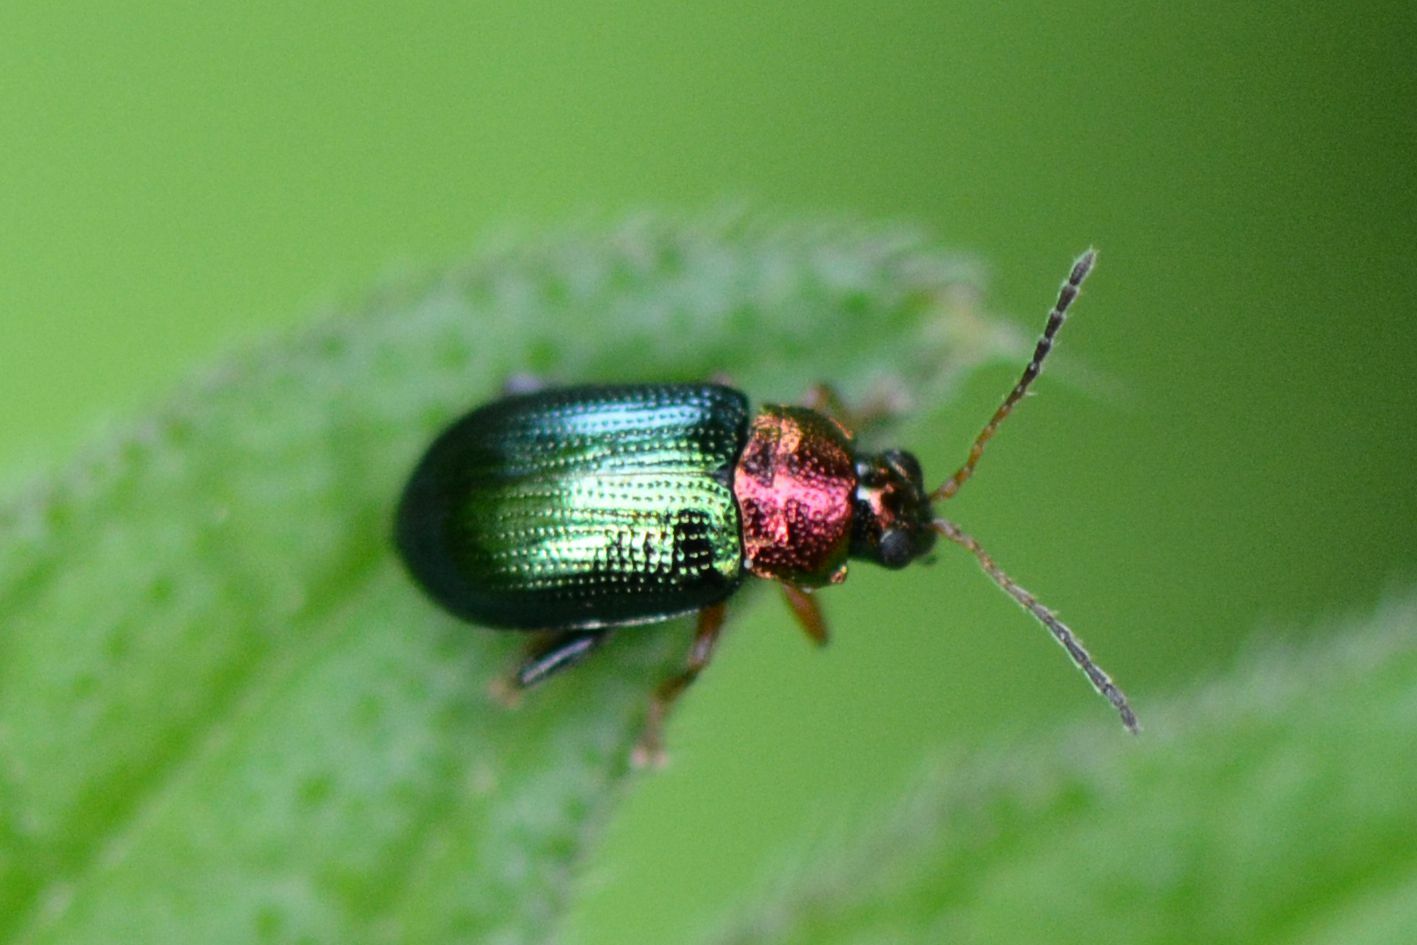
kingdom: Animalia
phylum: Arthropoda
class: Insecta
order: Coleoptera
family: Chrysomelidae
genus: Crepidodera
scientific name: Crepidodera aurata
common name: Willow flea beetle
